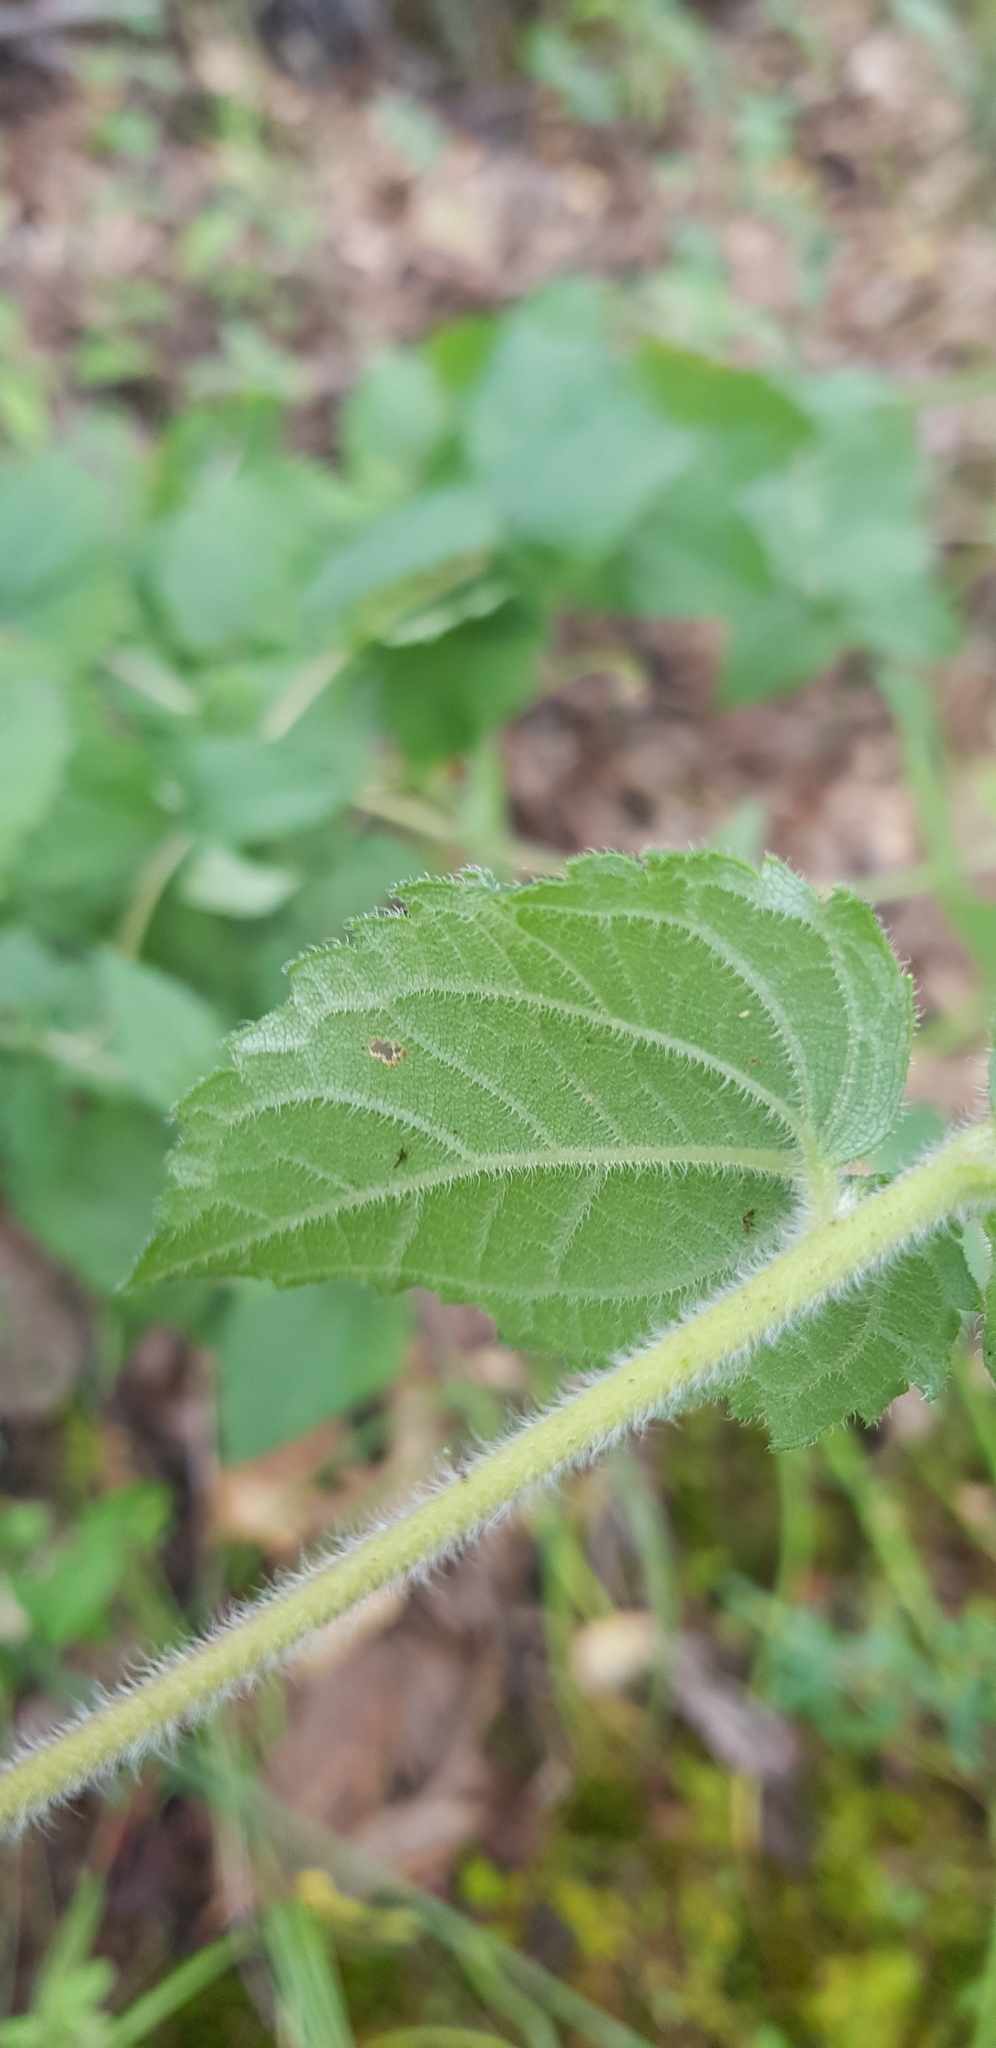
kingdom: Plantae
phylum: Tracheophyta
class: Magnoliopsida
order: Asterales
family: Asteraceae
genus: Simsia
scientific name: Simsia amplexicaulis
